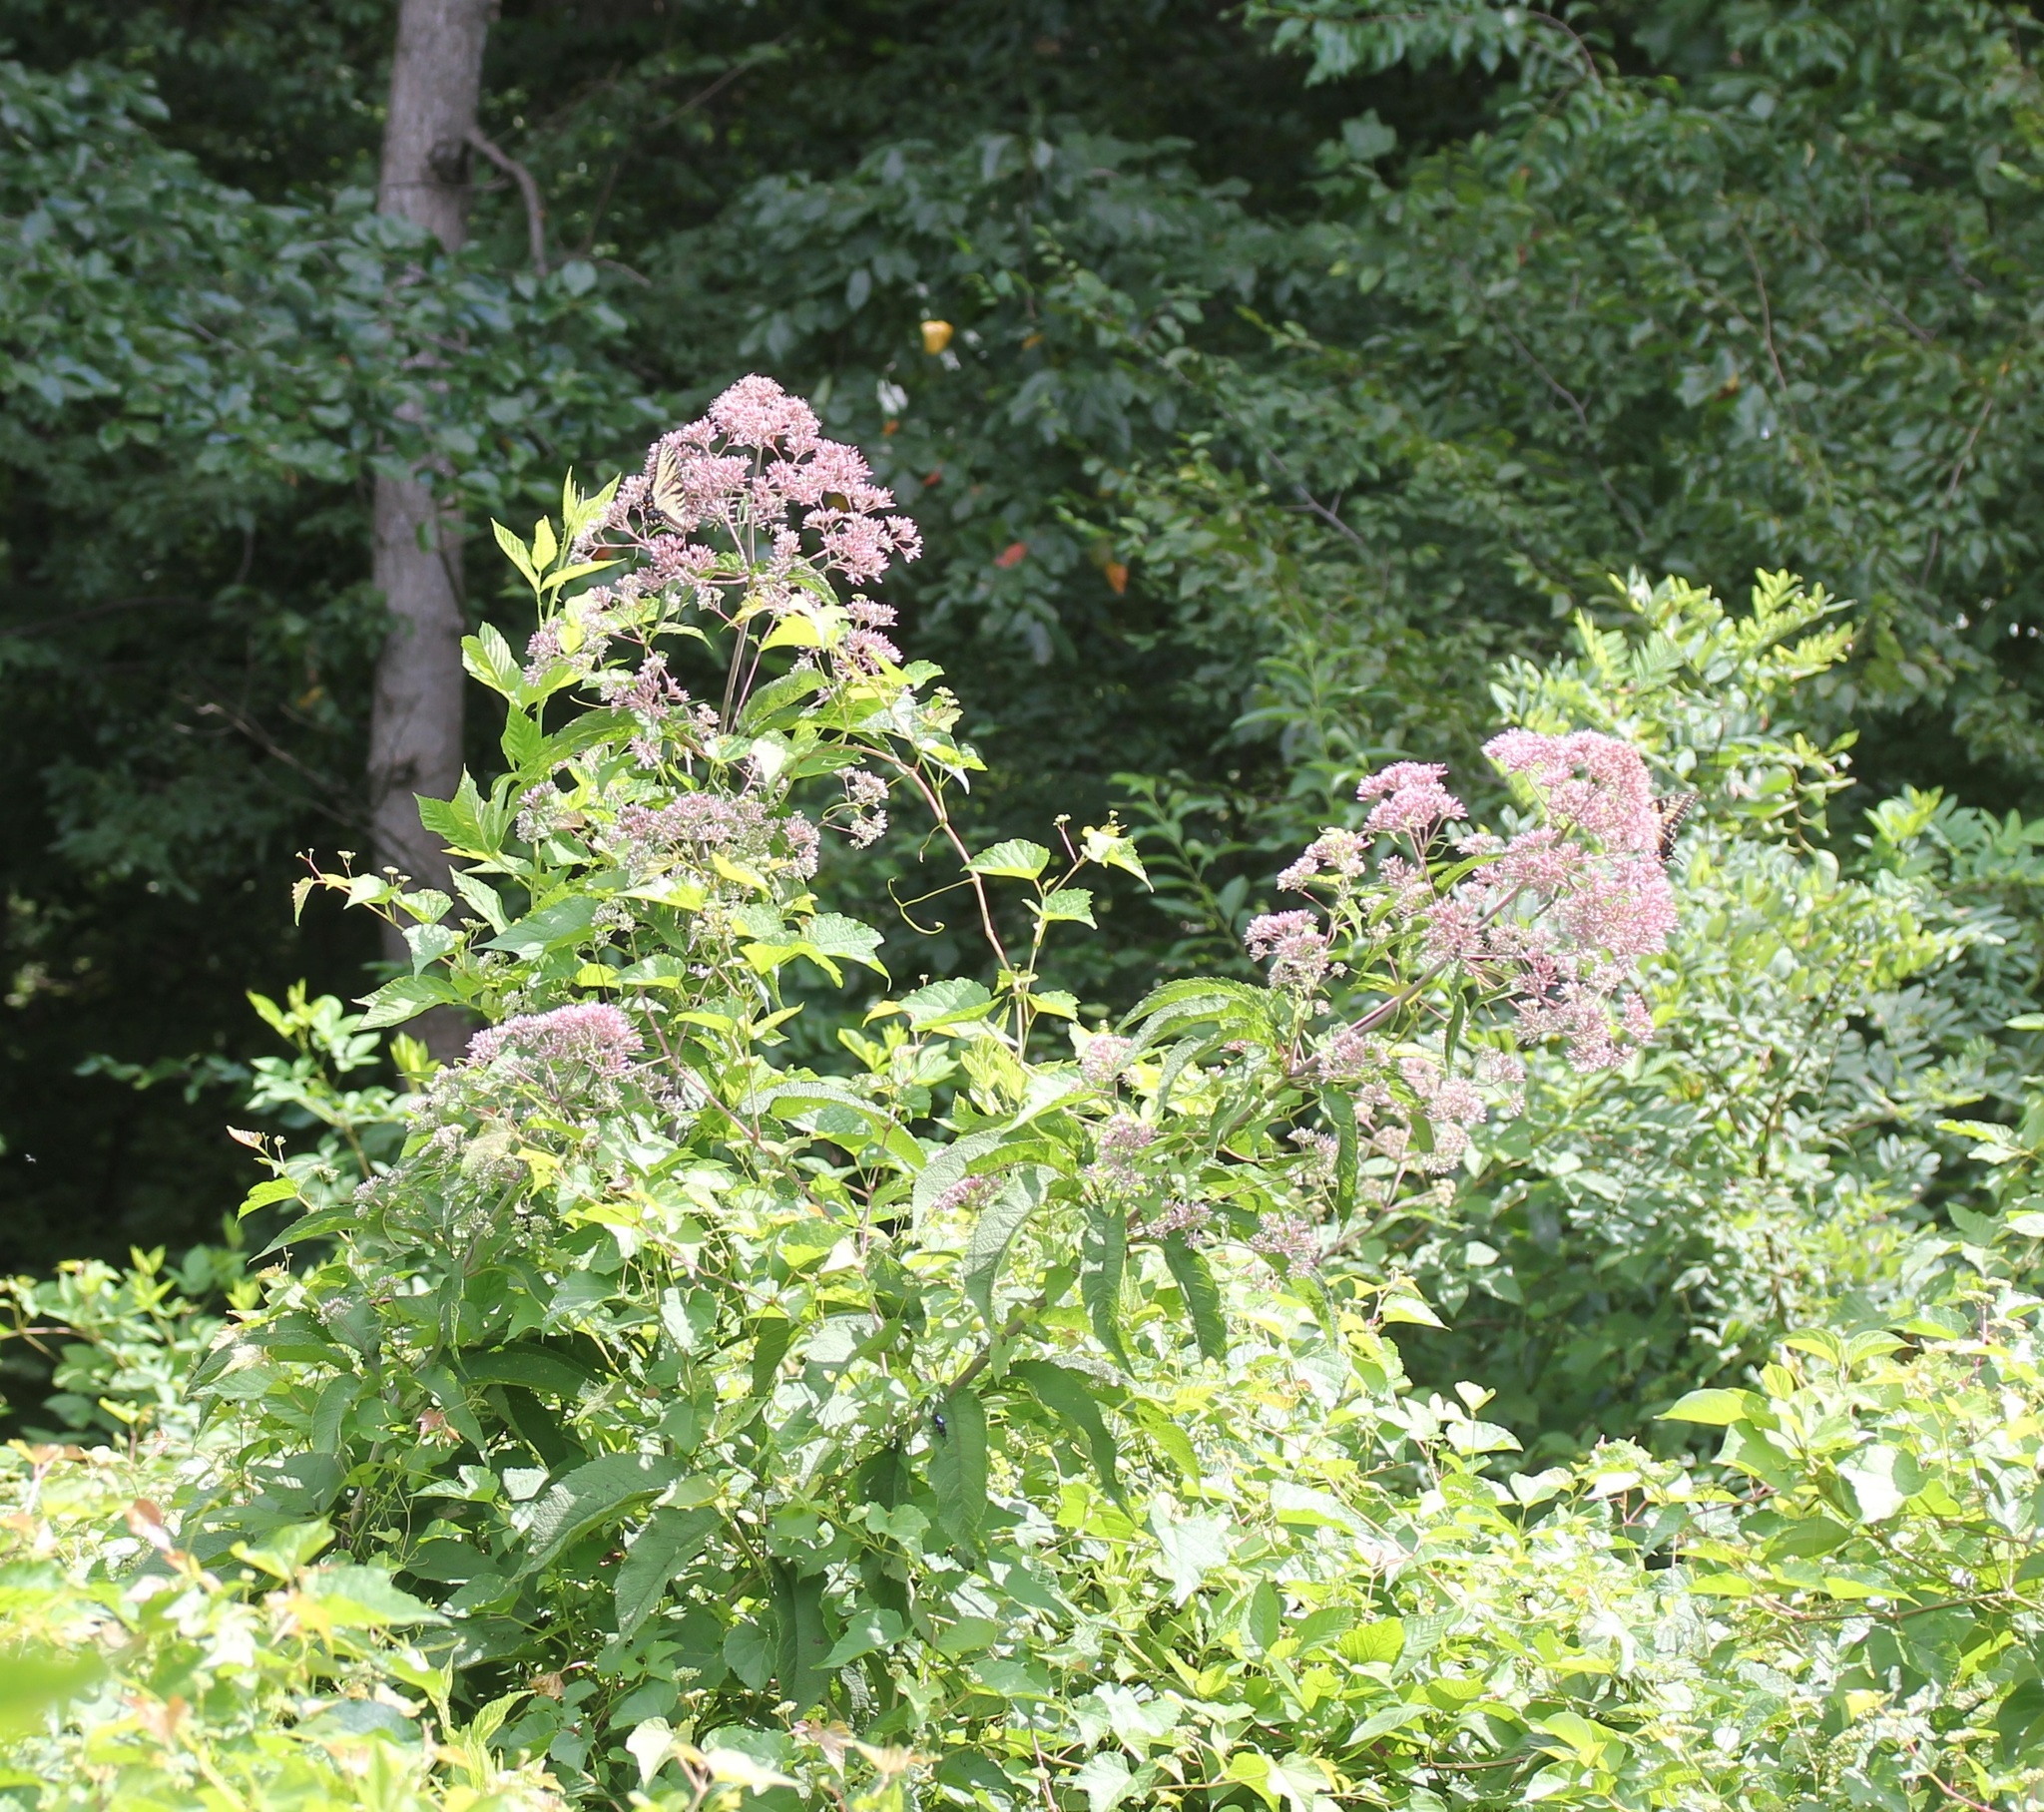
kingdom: Plantae
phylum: Tracheophyta
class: Magnoliopsida
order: Asterales
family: Asteraceae
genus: Eutrochium
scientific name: Eutrochium fistulosum
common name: Trumpetweed
